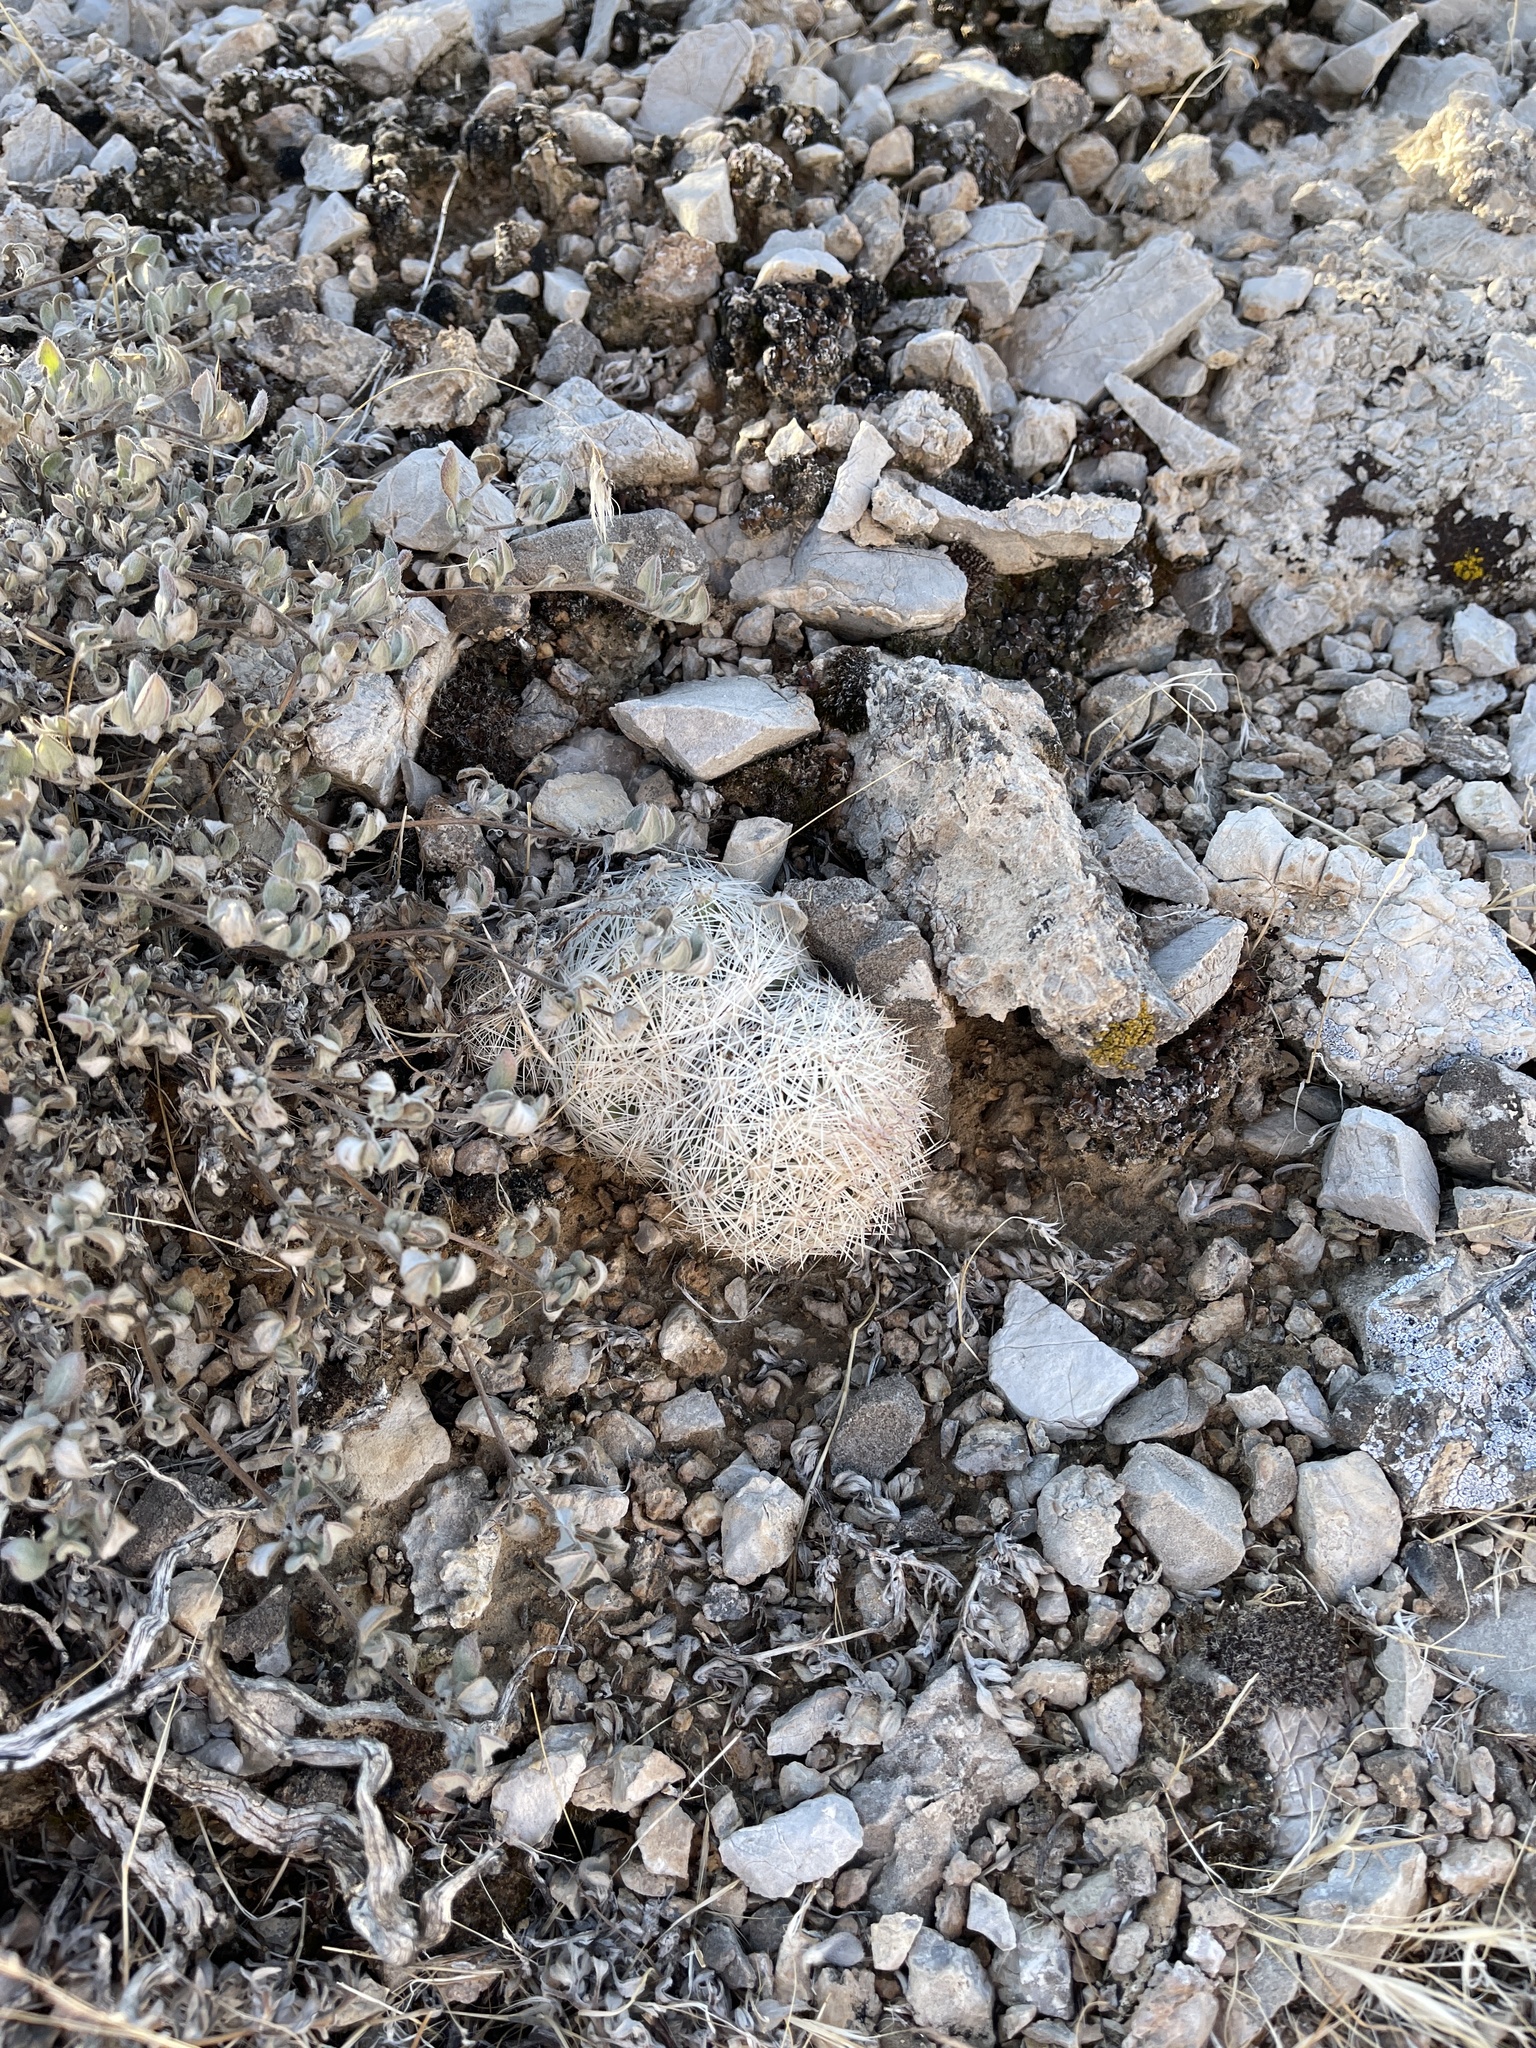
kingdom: Plantae
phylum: Tracheophyta
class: Magnoliopsida
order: Caryophyllales
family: Cactaceae
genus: Pelecyphora
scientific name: Pelecyphora dasyacantha
